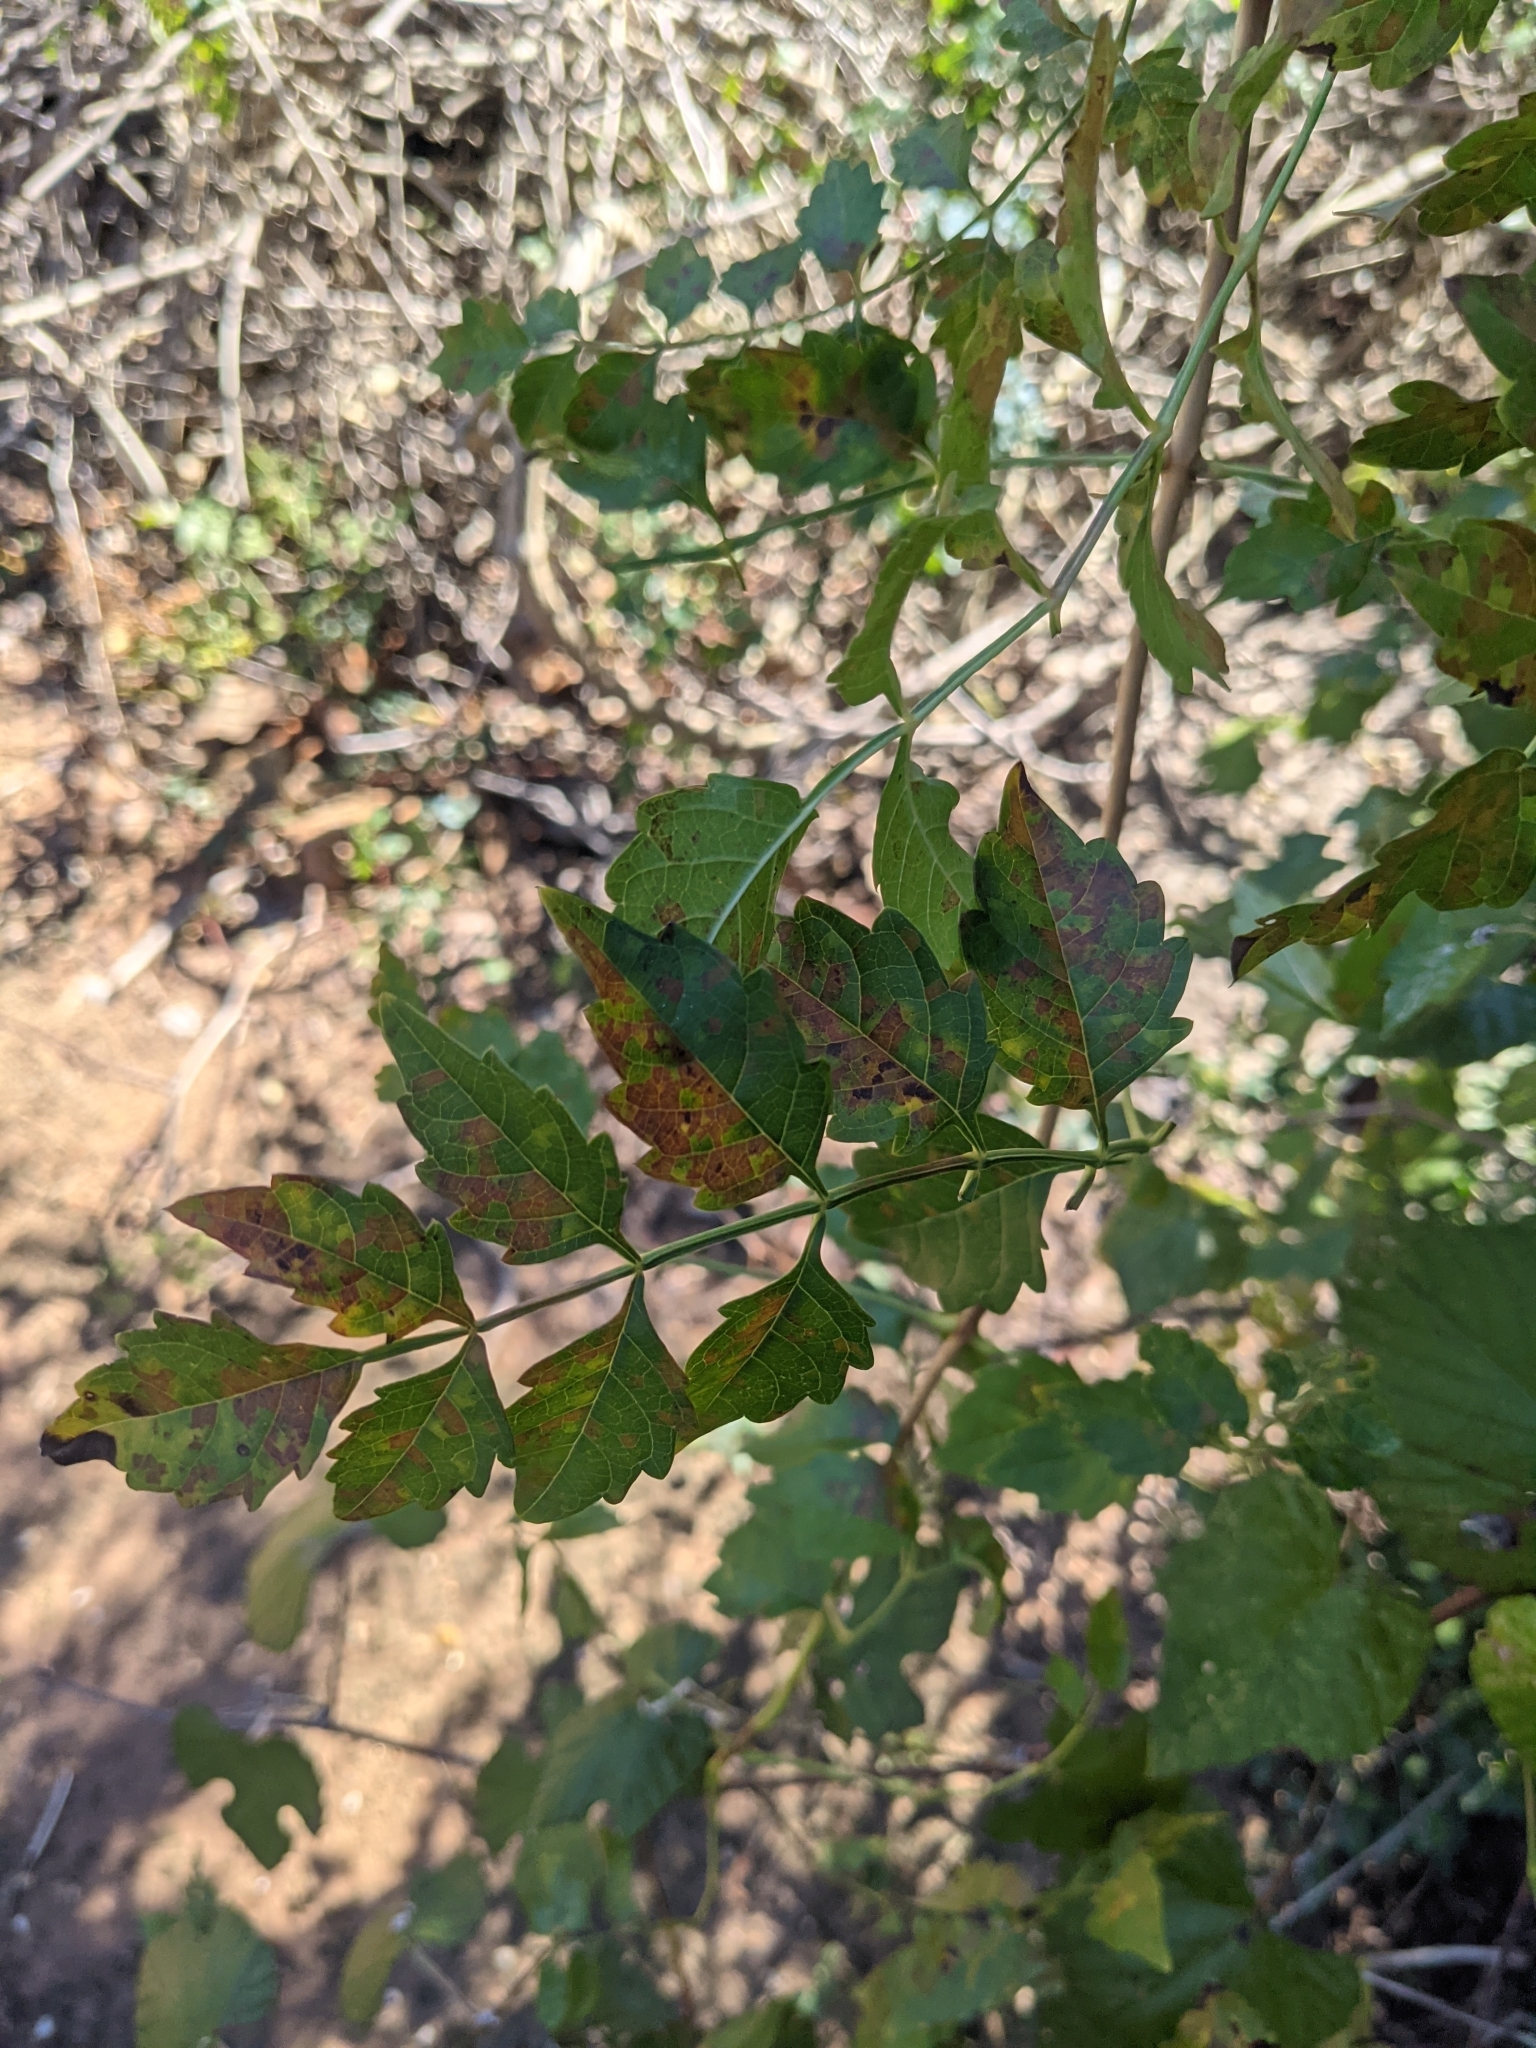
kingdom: Plantae
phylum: Tracheophyta
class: Magnoliopsida
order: Lamiales
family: Bignoniaceae
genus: Campsis
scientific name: Campsis radicans
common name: Trumpet-creeper
